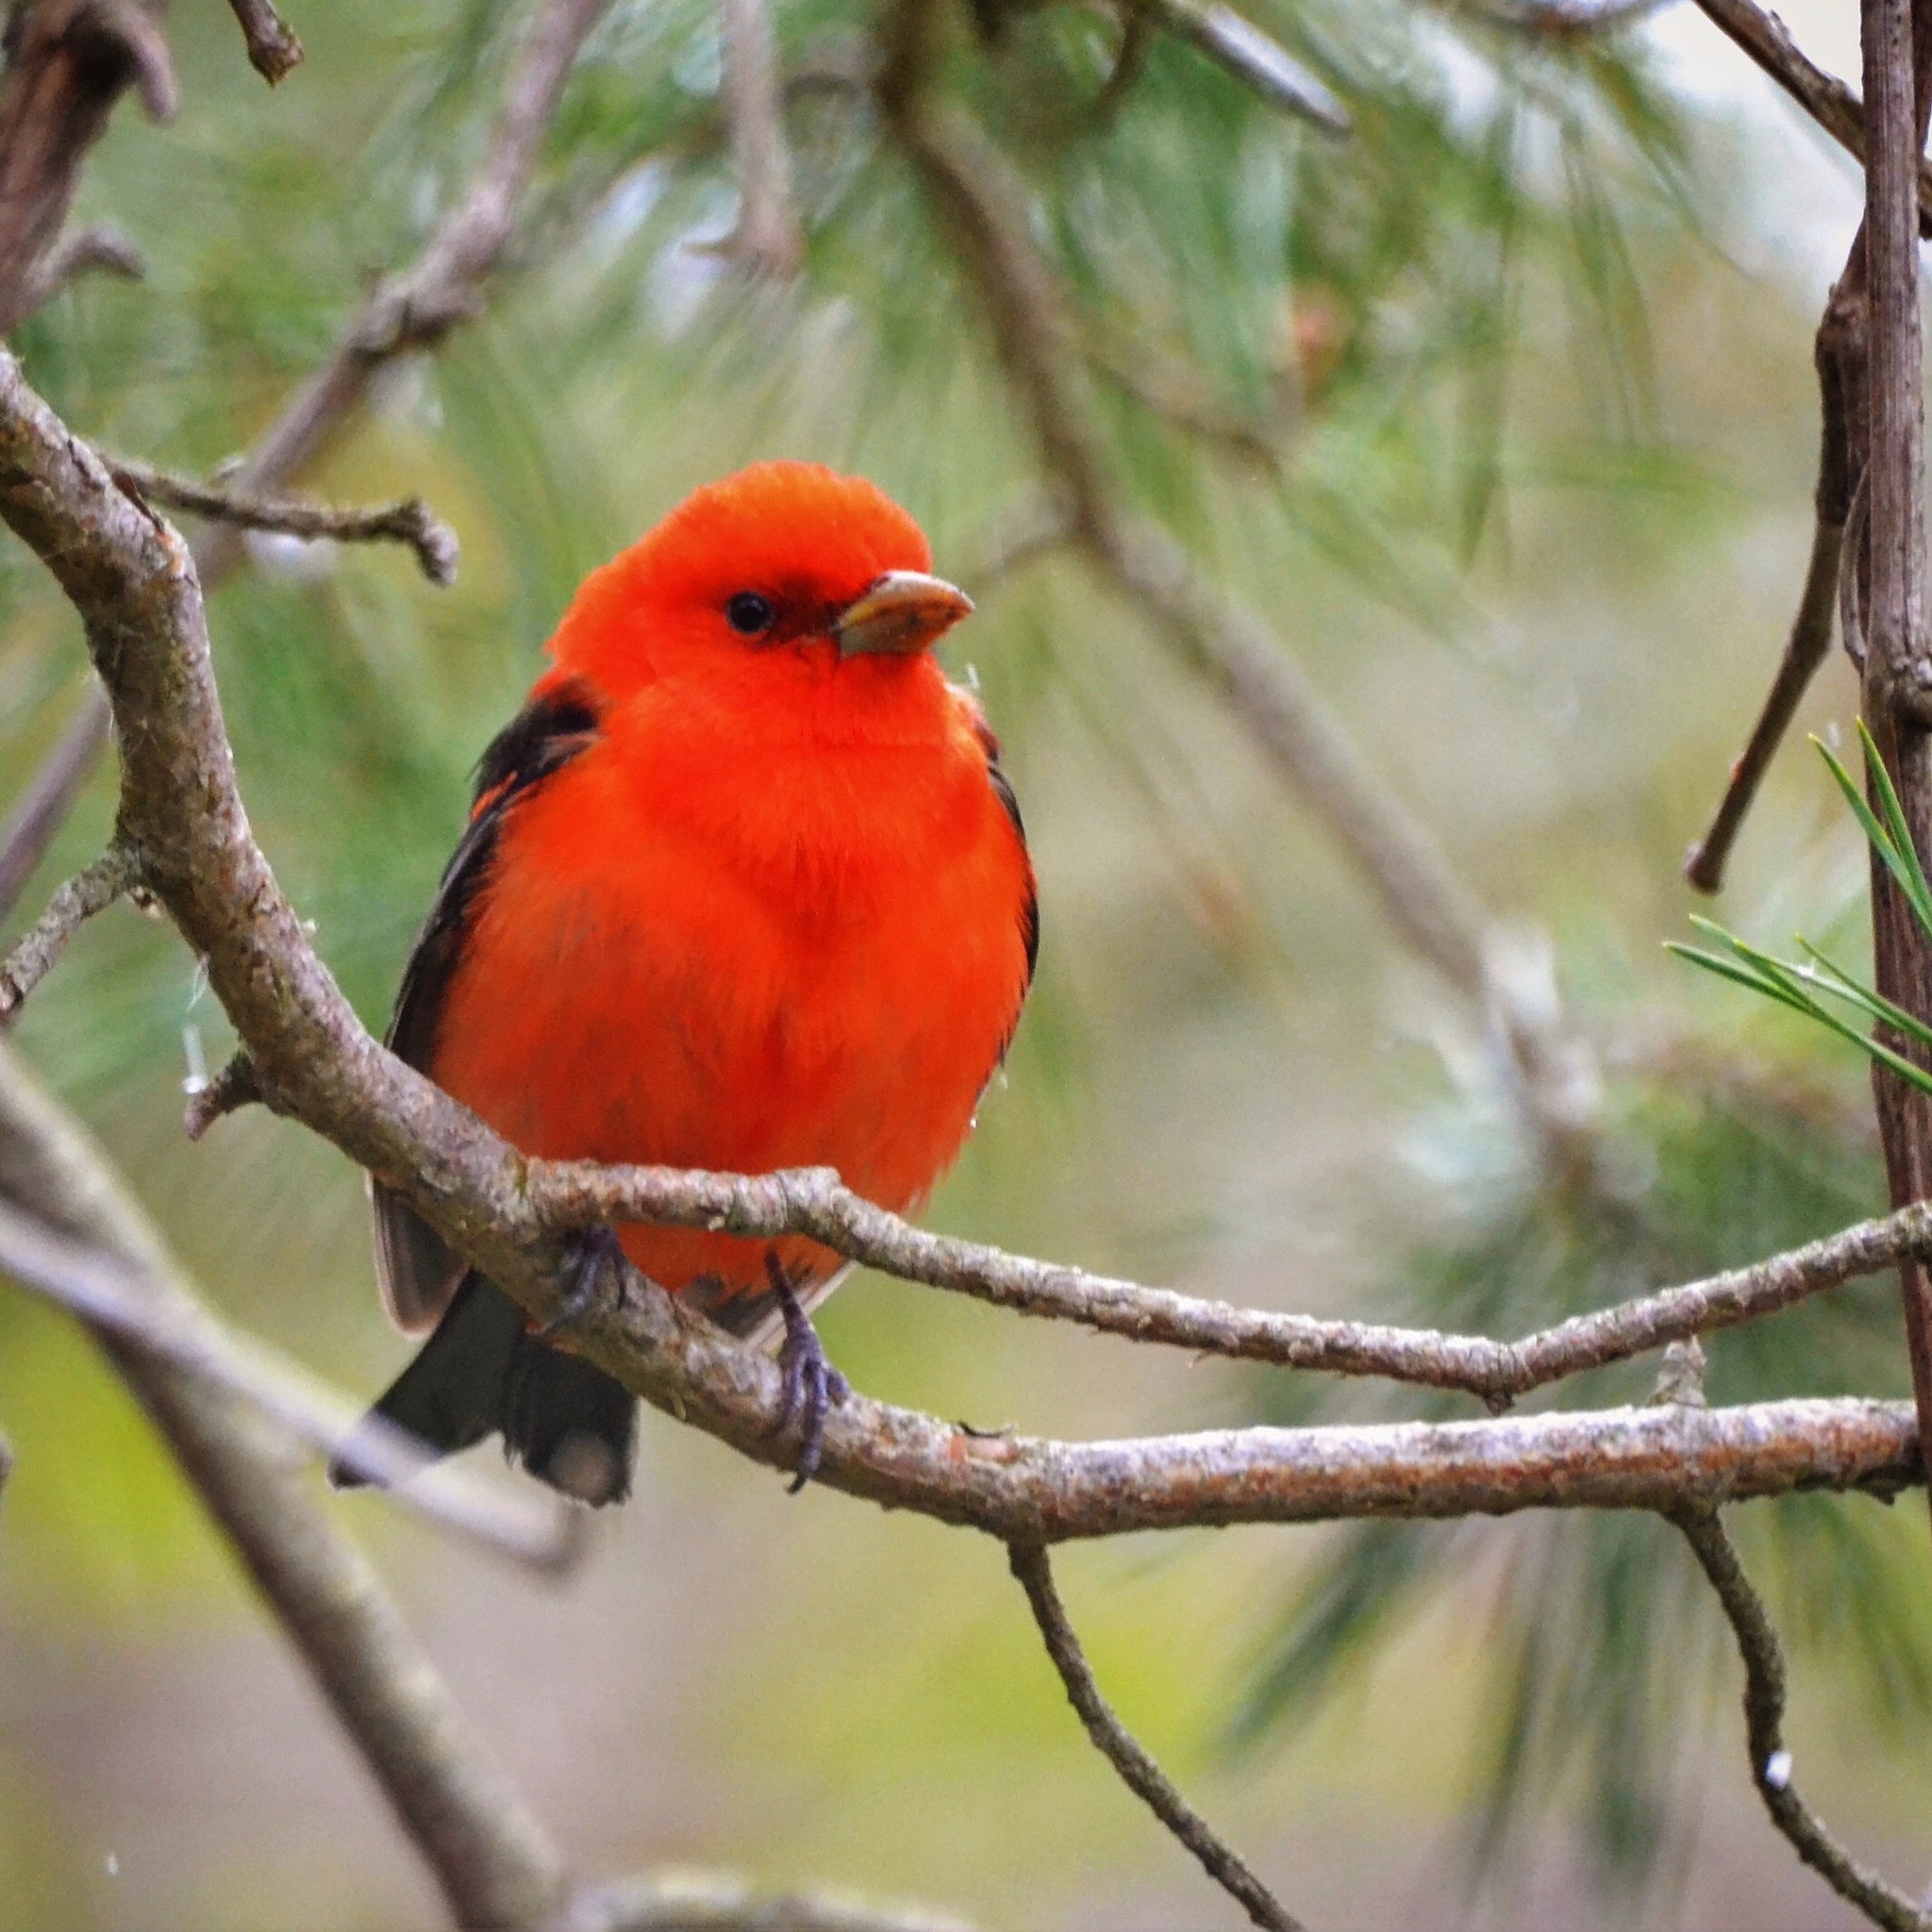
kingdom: Animalia
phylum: Chordata
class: Aves
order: Passeriformes
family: Cardinalidae
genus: Piranga
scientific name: Piranga olivacea
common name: Scarlet tanager
